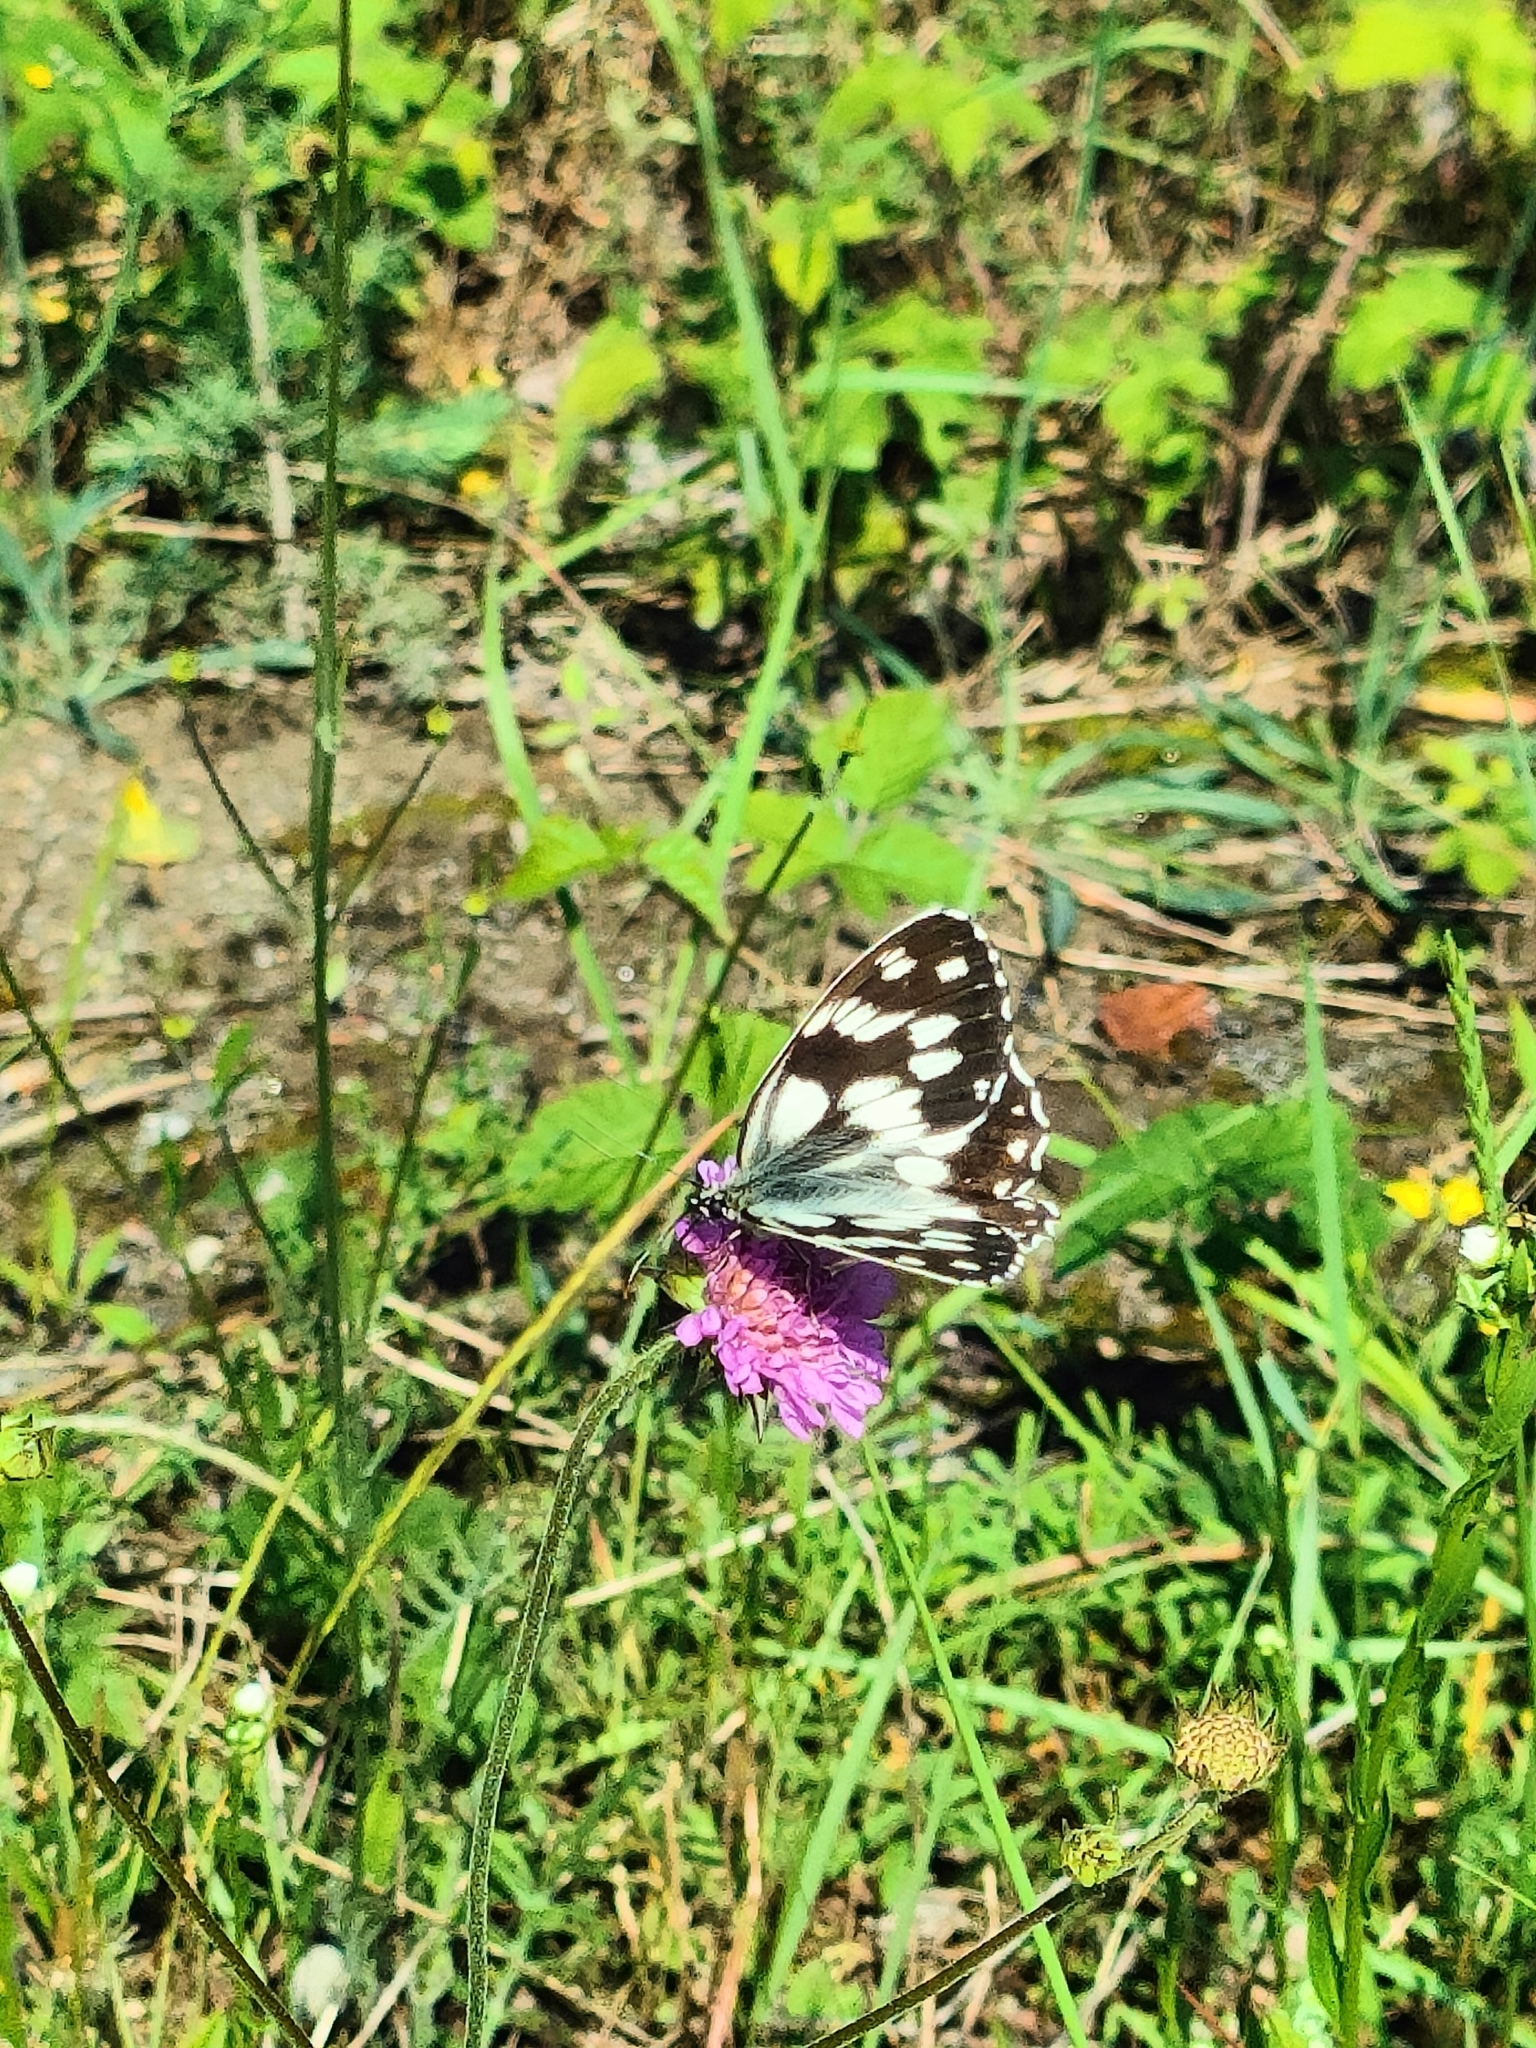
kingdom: Animalia
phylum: Arthropoda
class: Insecta
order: Lepidoptera
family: Nymphalidae
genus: Melanargia
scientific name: Melanargia galathea
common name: Marbled white
